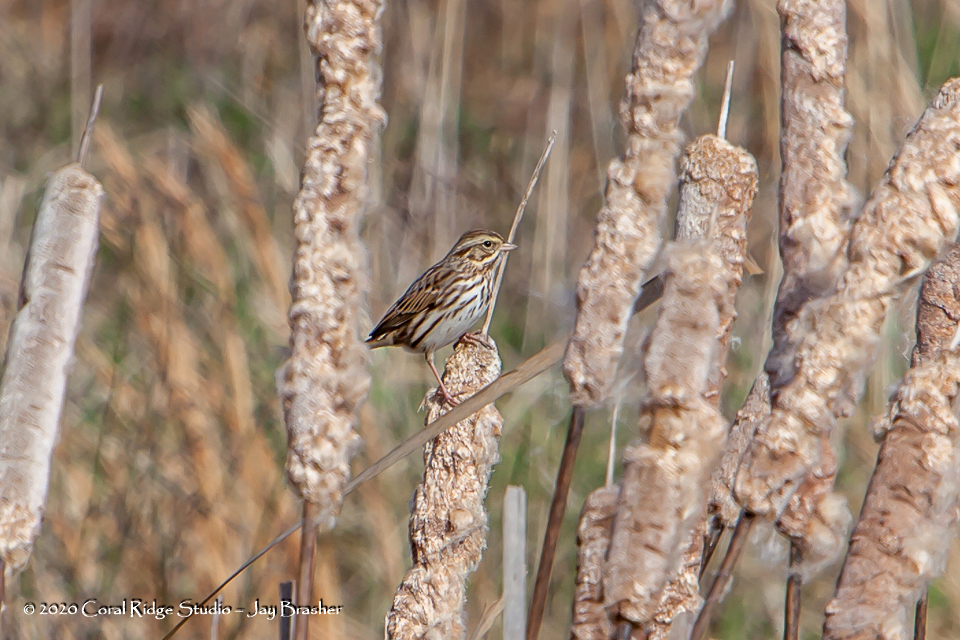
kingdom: Animalia
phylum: Chordata
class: Aves
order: Passeriformes
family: Passerellidae
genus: Passerculus
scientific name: Passerculus sandwichensis
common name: Savannah sparrow
